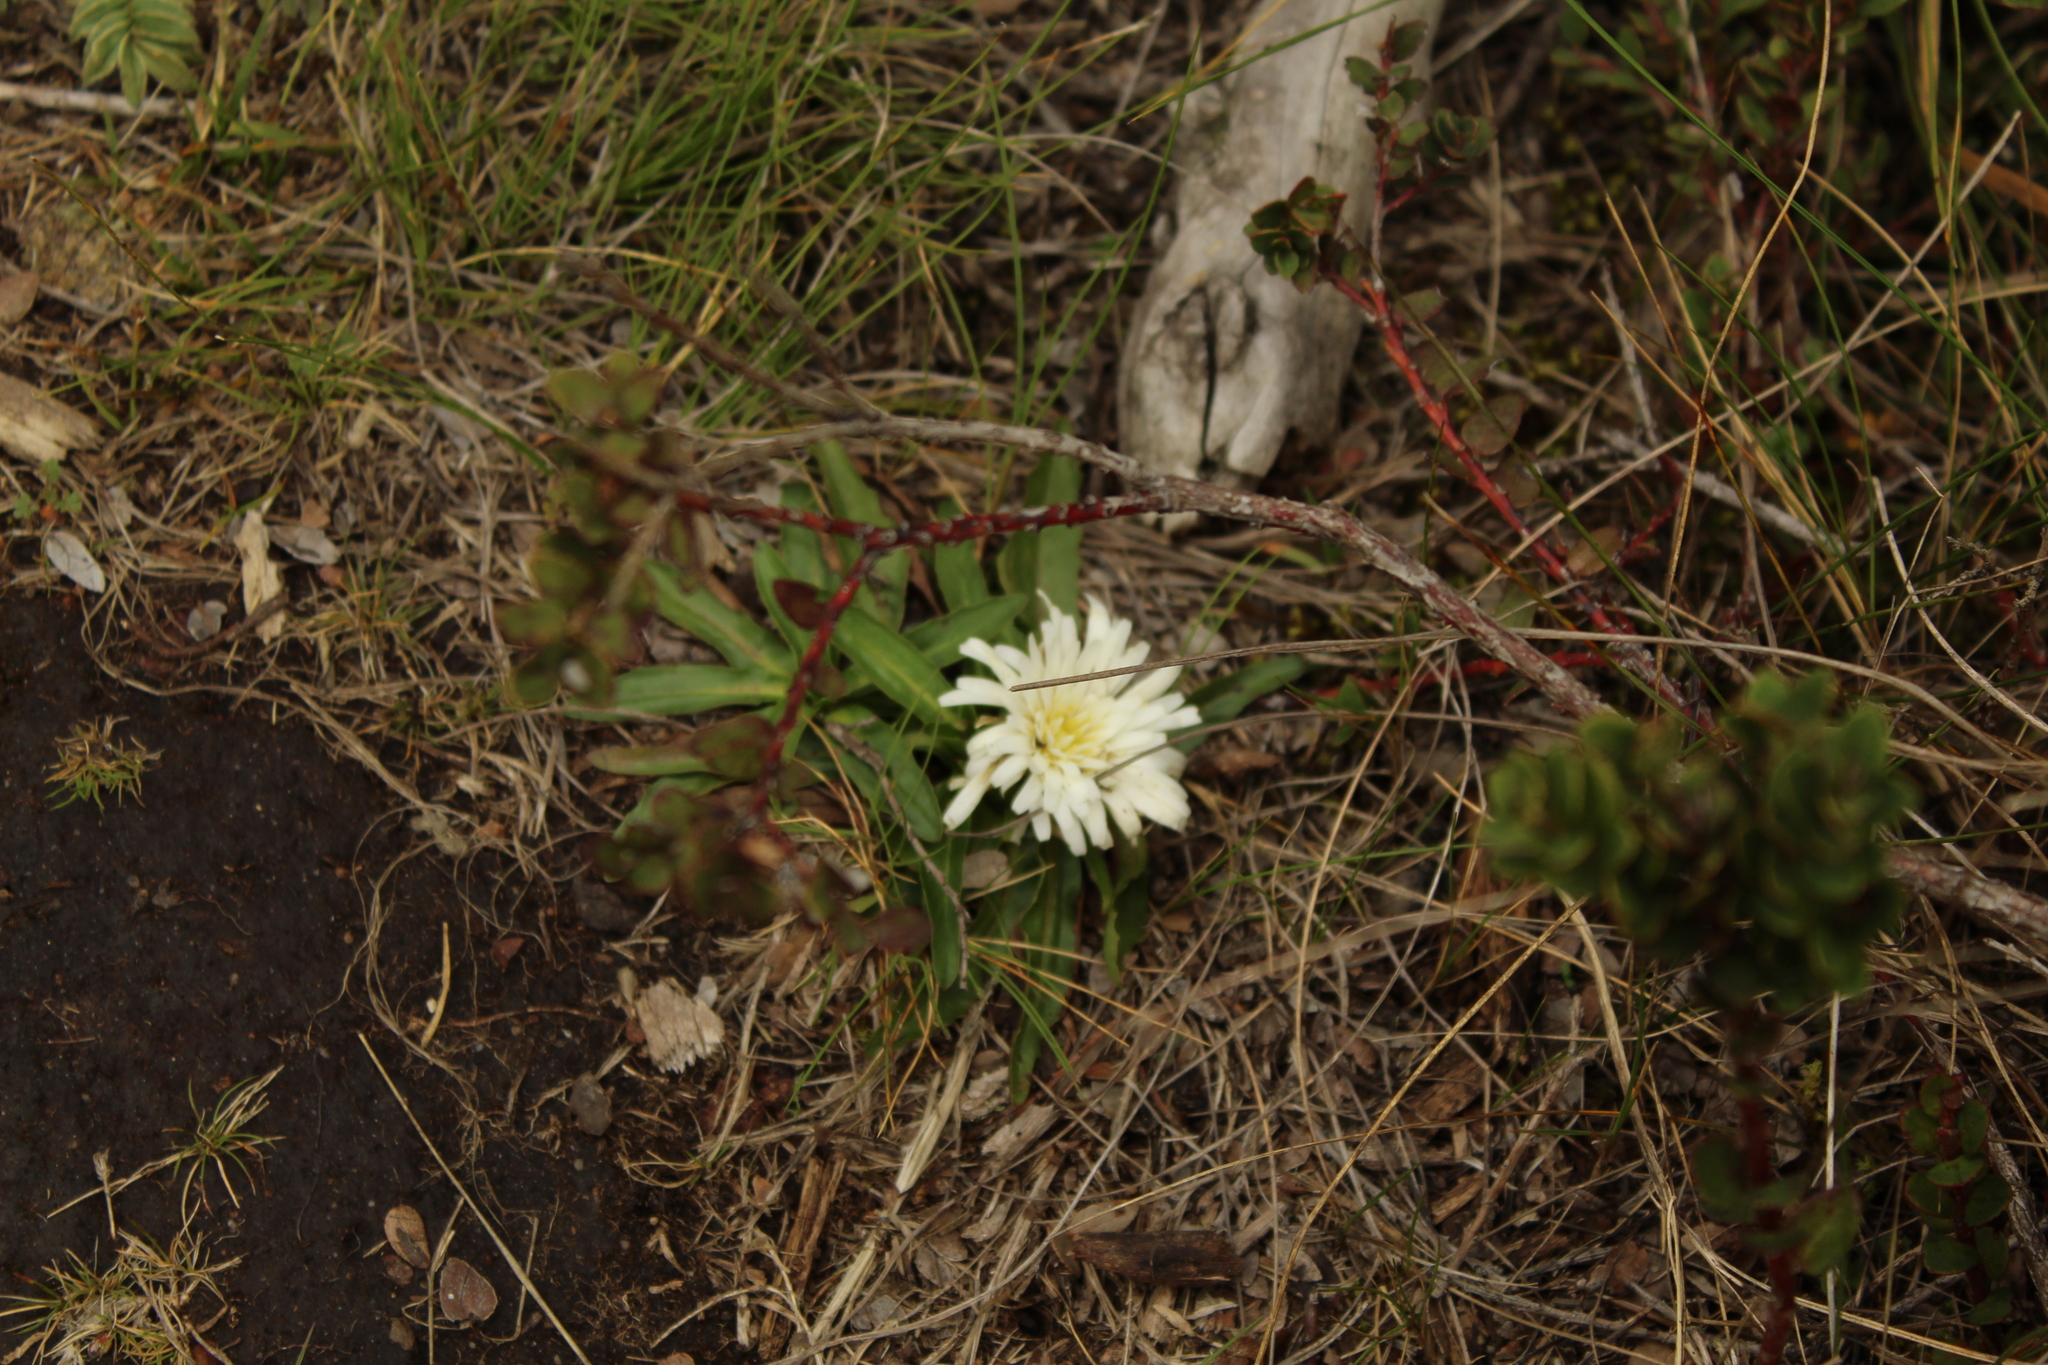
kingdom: Plantae
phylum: Tracheophyta
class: Magnoliopsida
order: Asterales
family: Asteraceae
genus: Hypochaeris
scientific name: Hypochaeris sessiliflora
